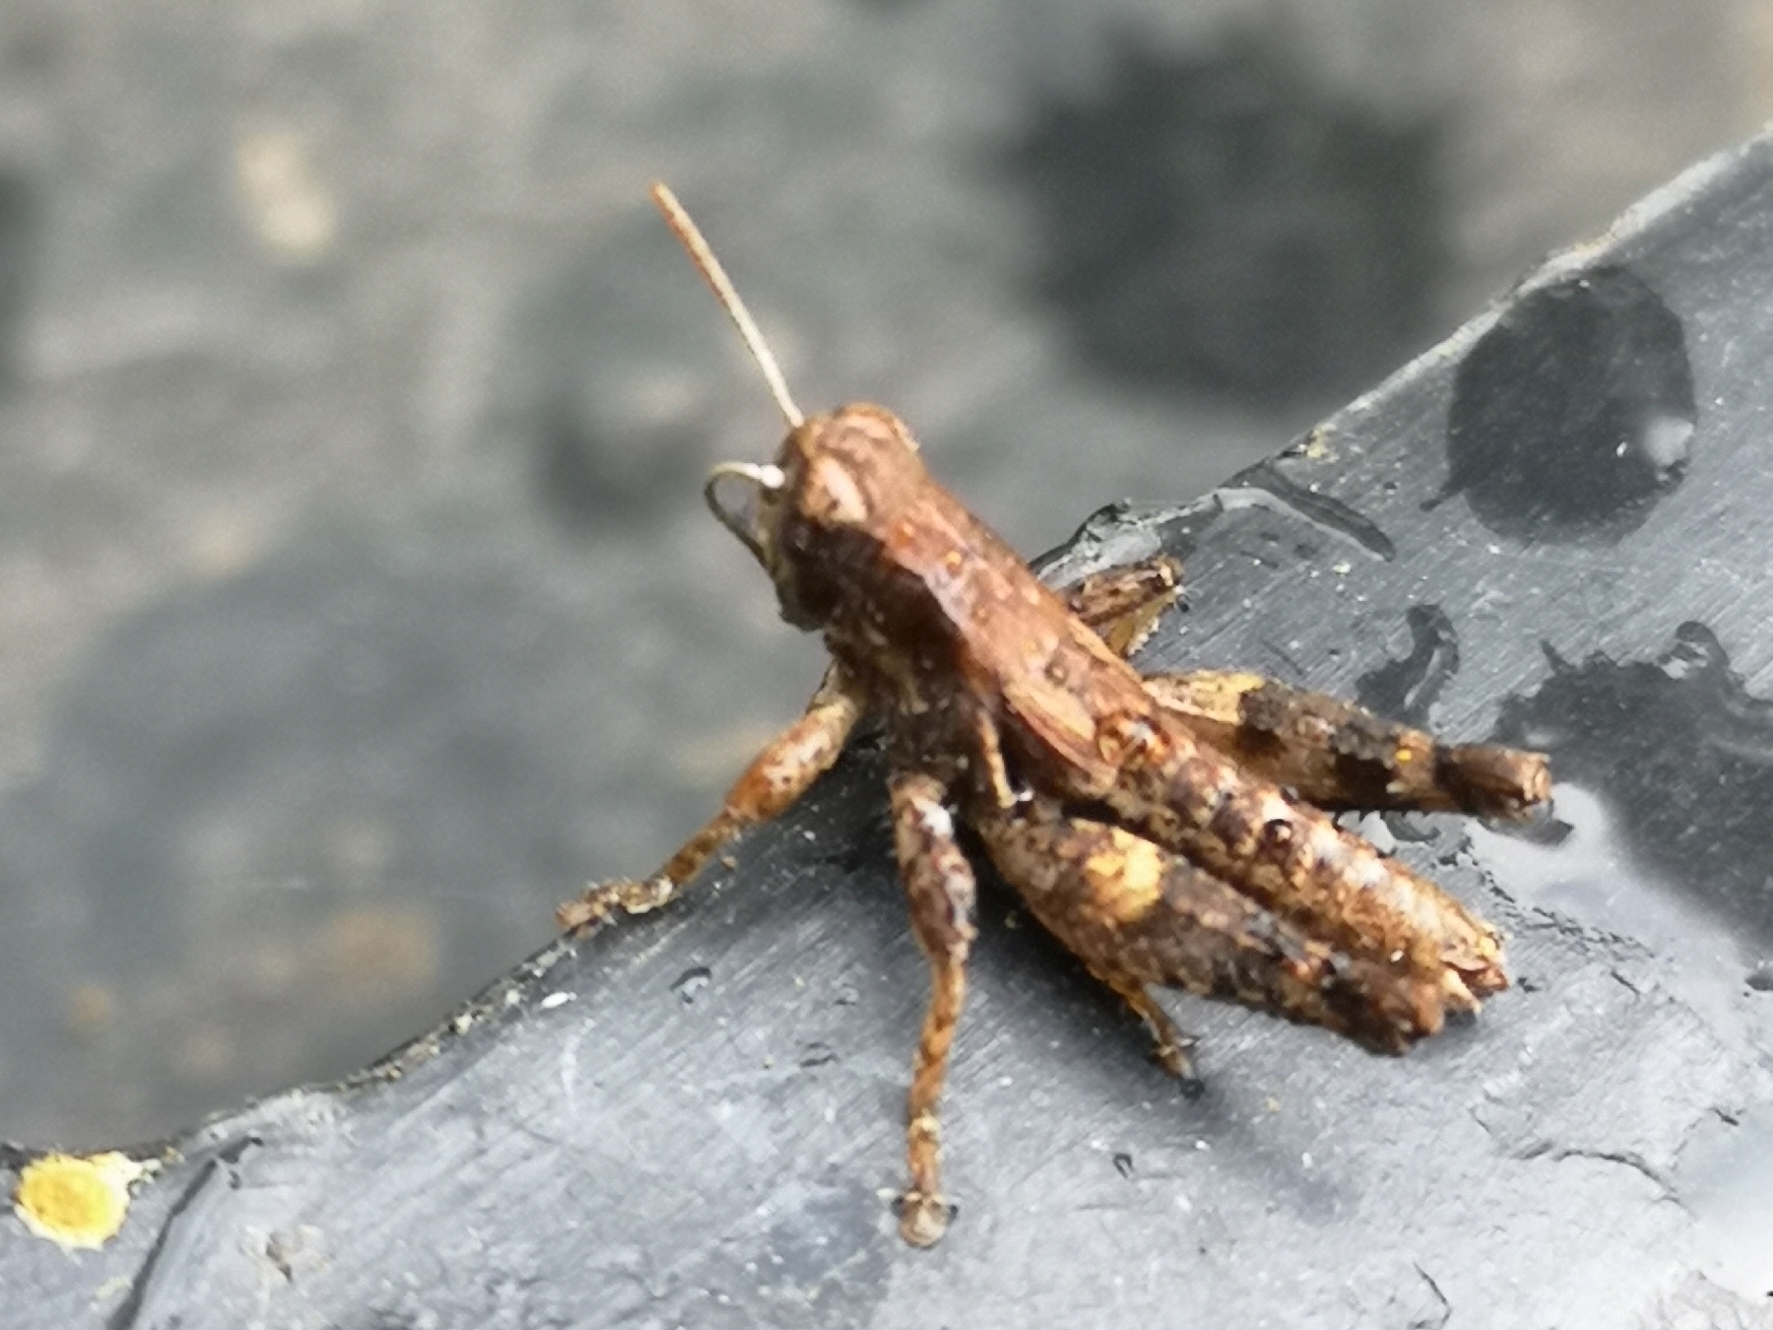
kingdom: Animalia
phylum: Arthropoda
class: Insecta
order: Orthoptera
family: Acrididae
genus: Pezotettix
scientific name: Pezotettix giornae
